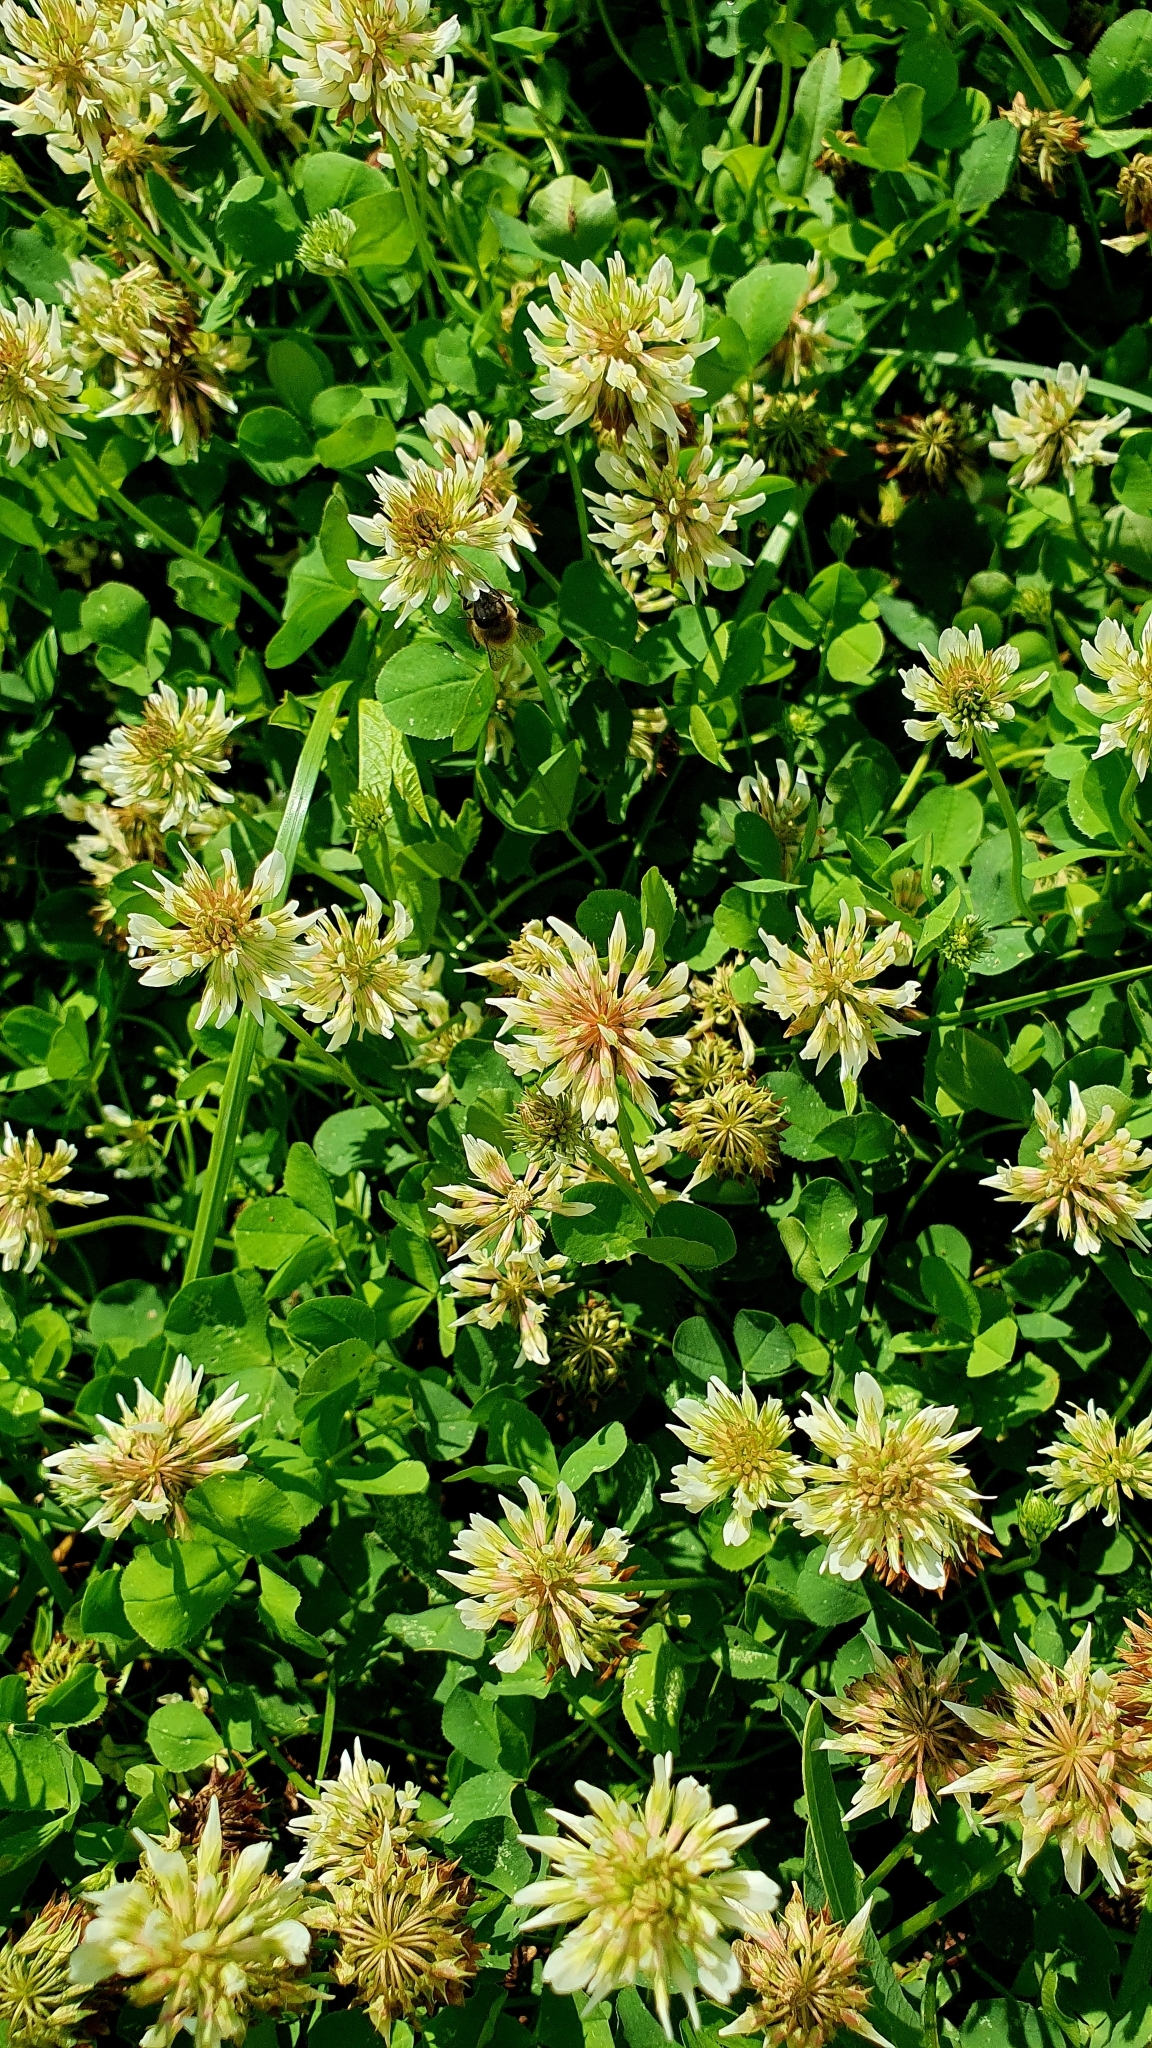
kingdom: Plantae
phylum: Tracheophyta
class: Magnoliopsida
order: Fabales
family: Fabaceae
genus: Trifolium
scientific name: Trifolium repens
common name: White clover
